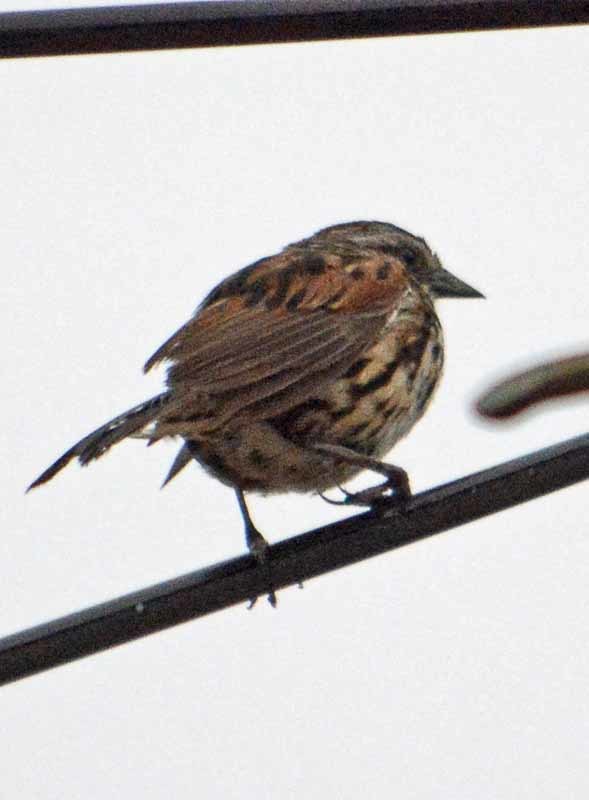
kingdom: Animalia
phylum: Chordata
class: Aves
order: Passeriformes
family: Passerellidae
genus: Melospiza
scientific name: Melospiza melodia
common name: Song sparrow
